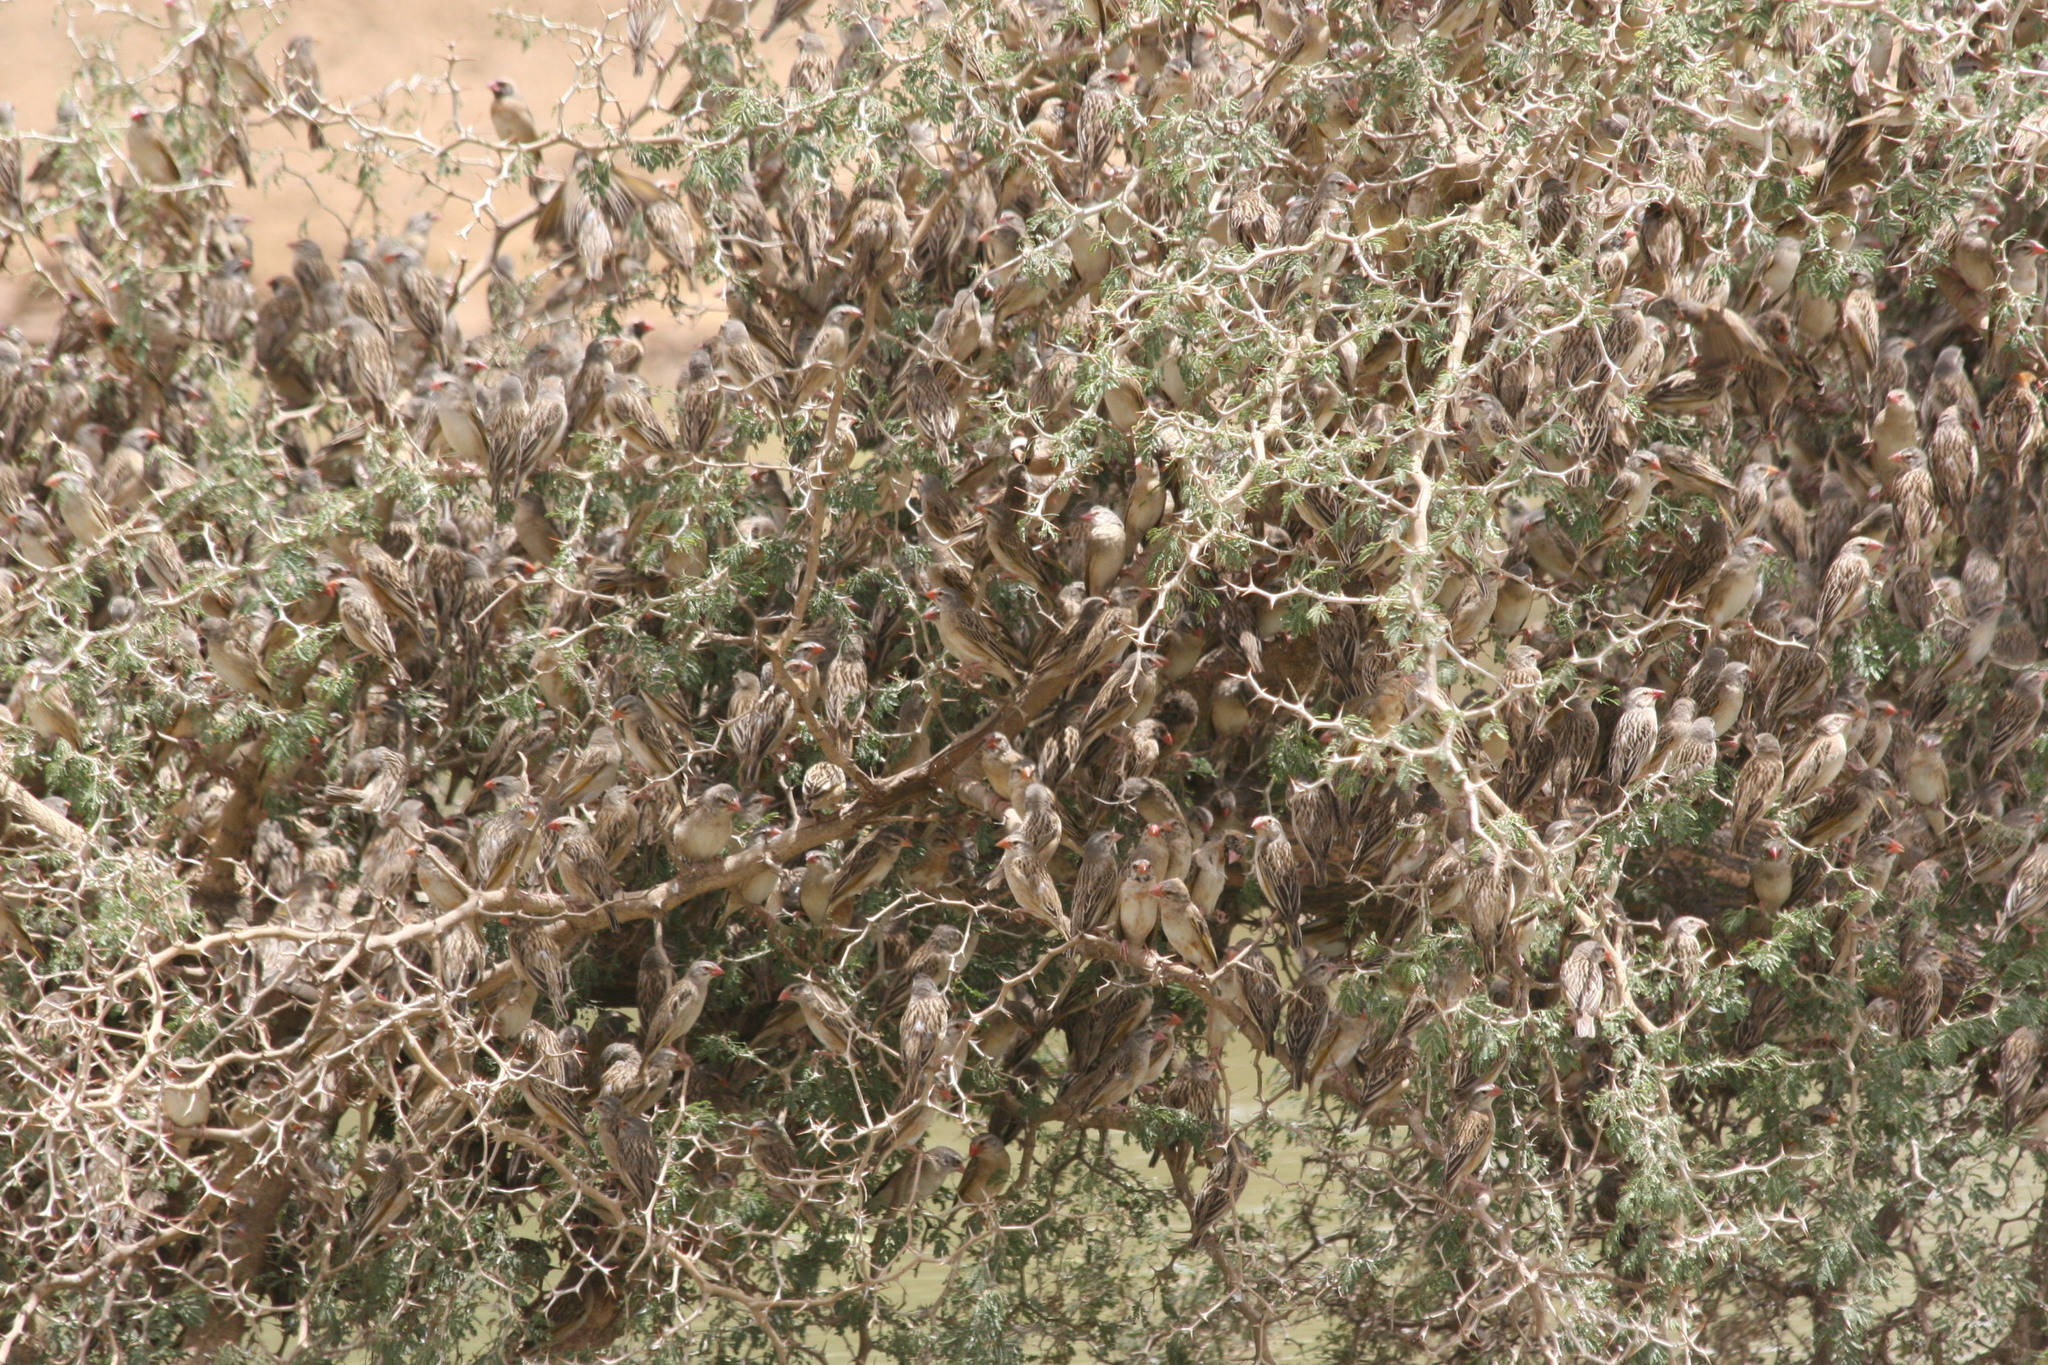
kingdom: Animalia
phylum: Chordata
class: Aves
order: Passeriformes
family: Ploceidae
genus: Quelea
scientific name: Quelea quelea
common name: Red-billed quelea
